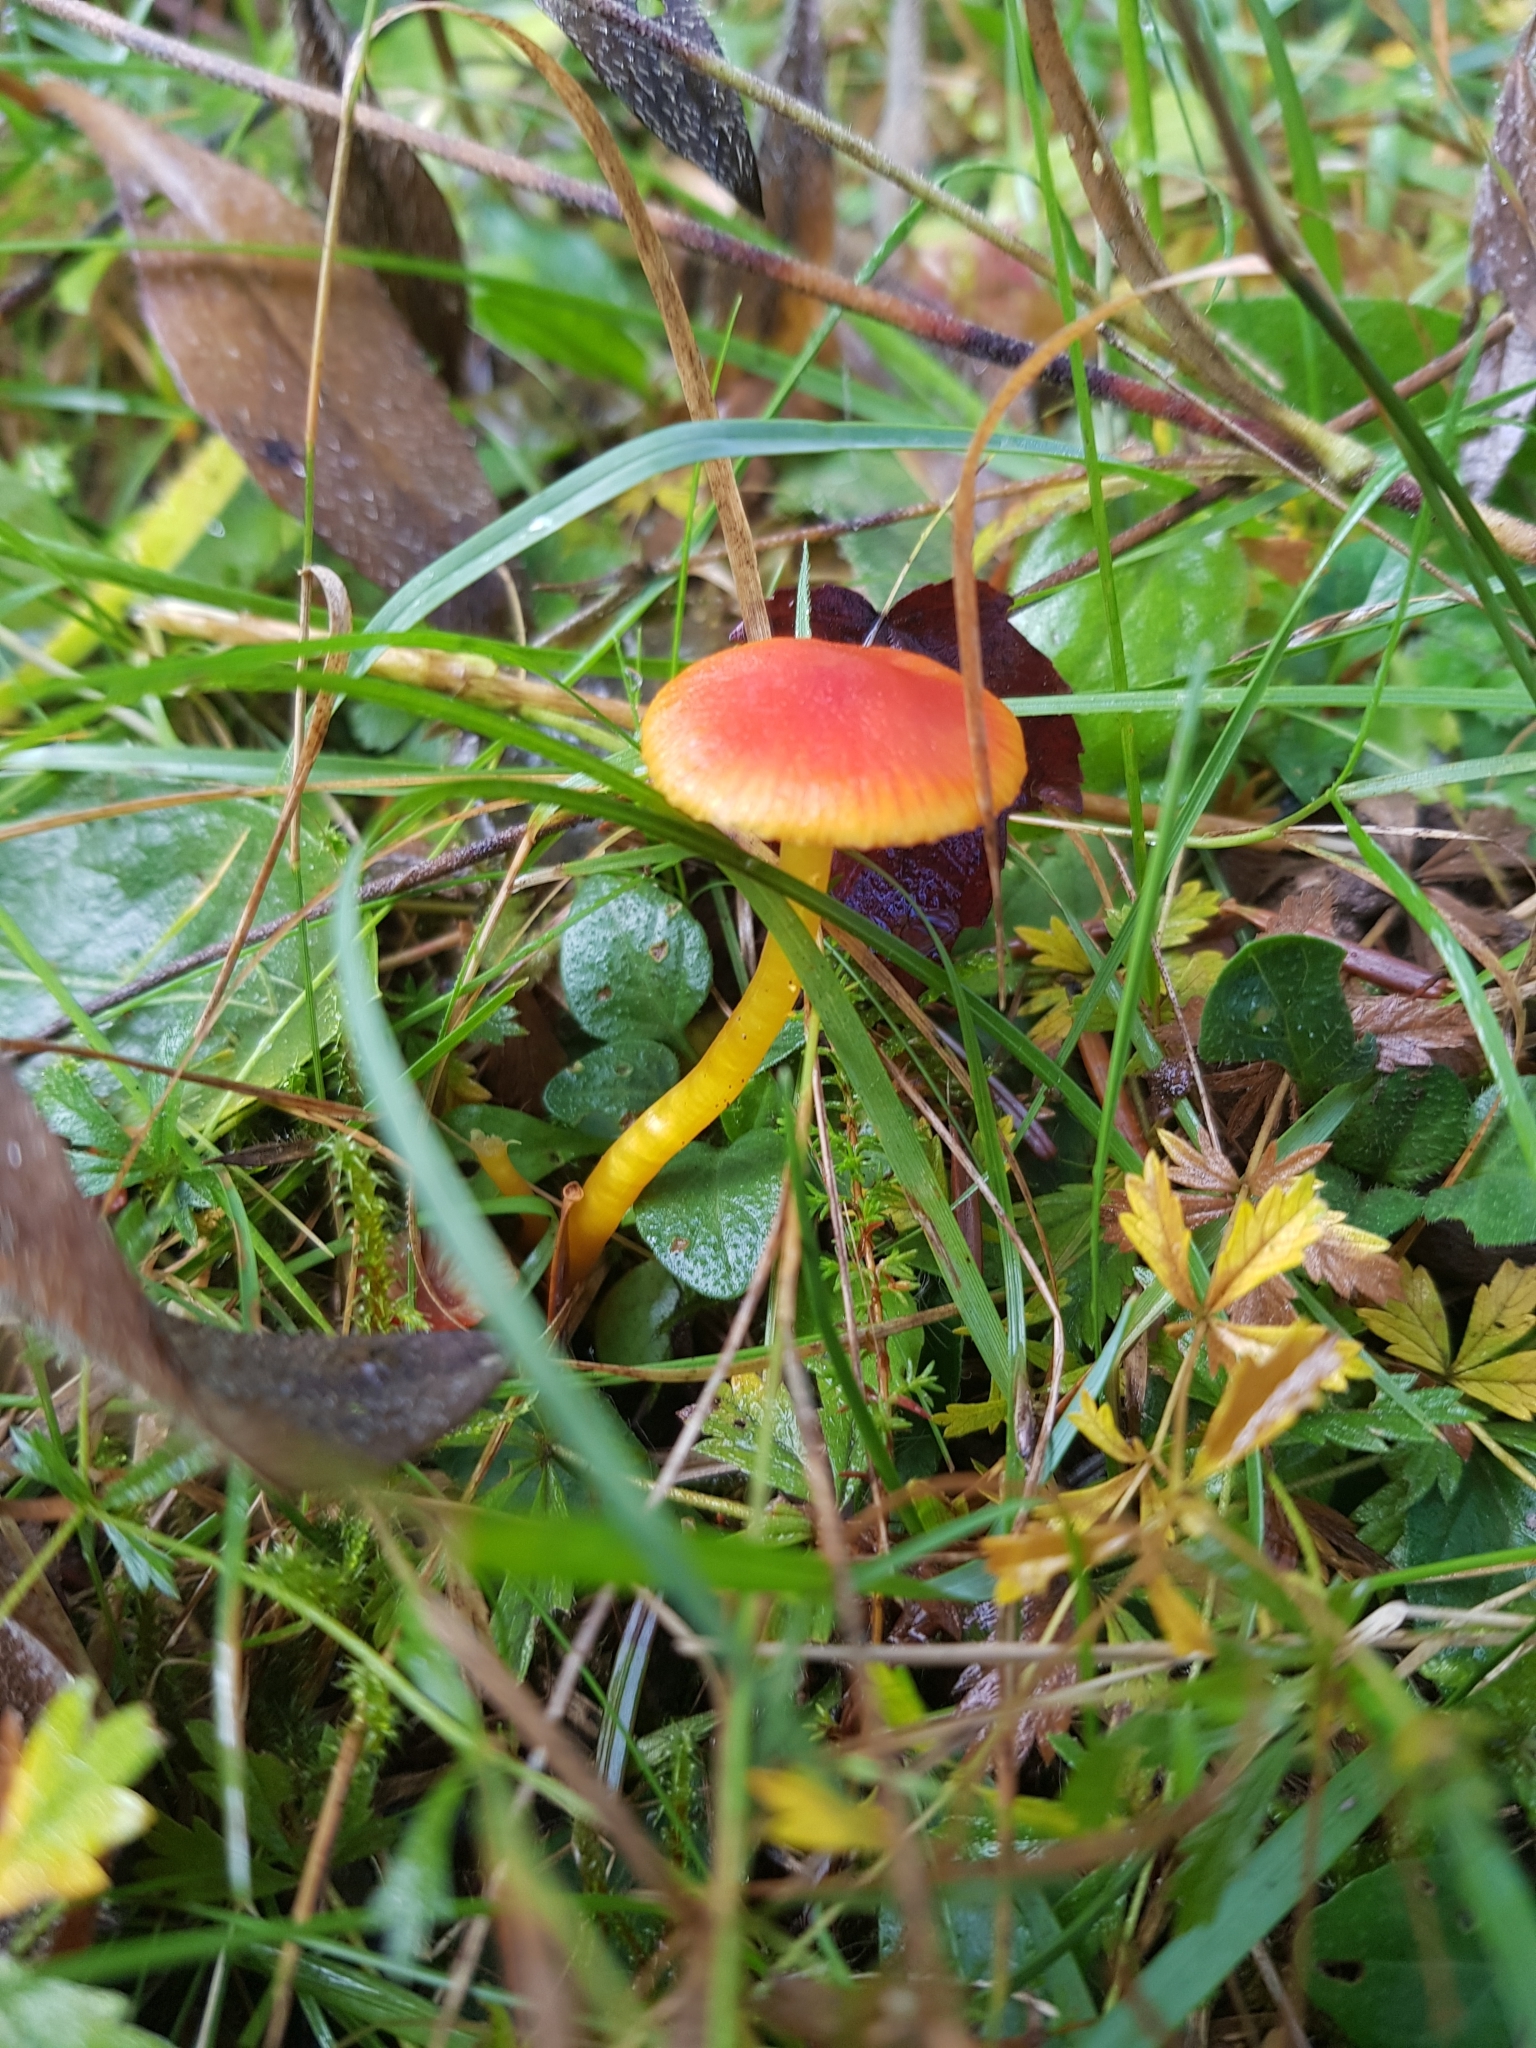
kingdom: Fungi
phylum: Basidiomycota
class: Agaricomycetes
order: Agaricales
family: Hygrophoraceae
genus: Hygrocybe
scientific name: Hygrocybe insipida
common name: Spangle waxcap
